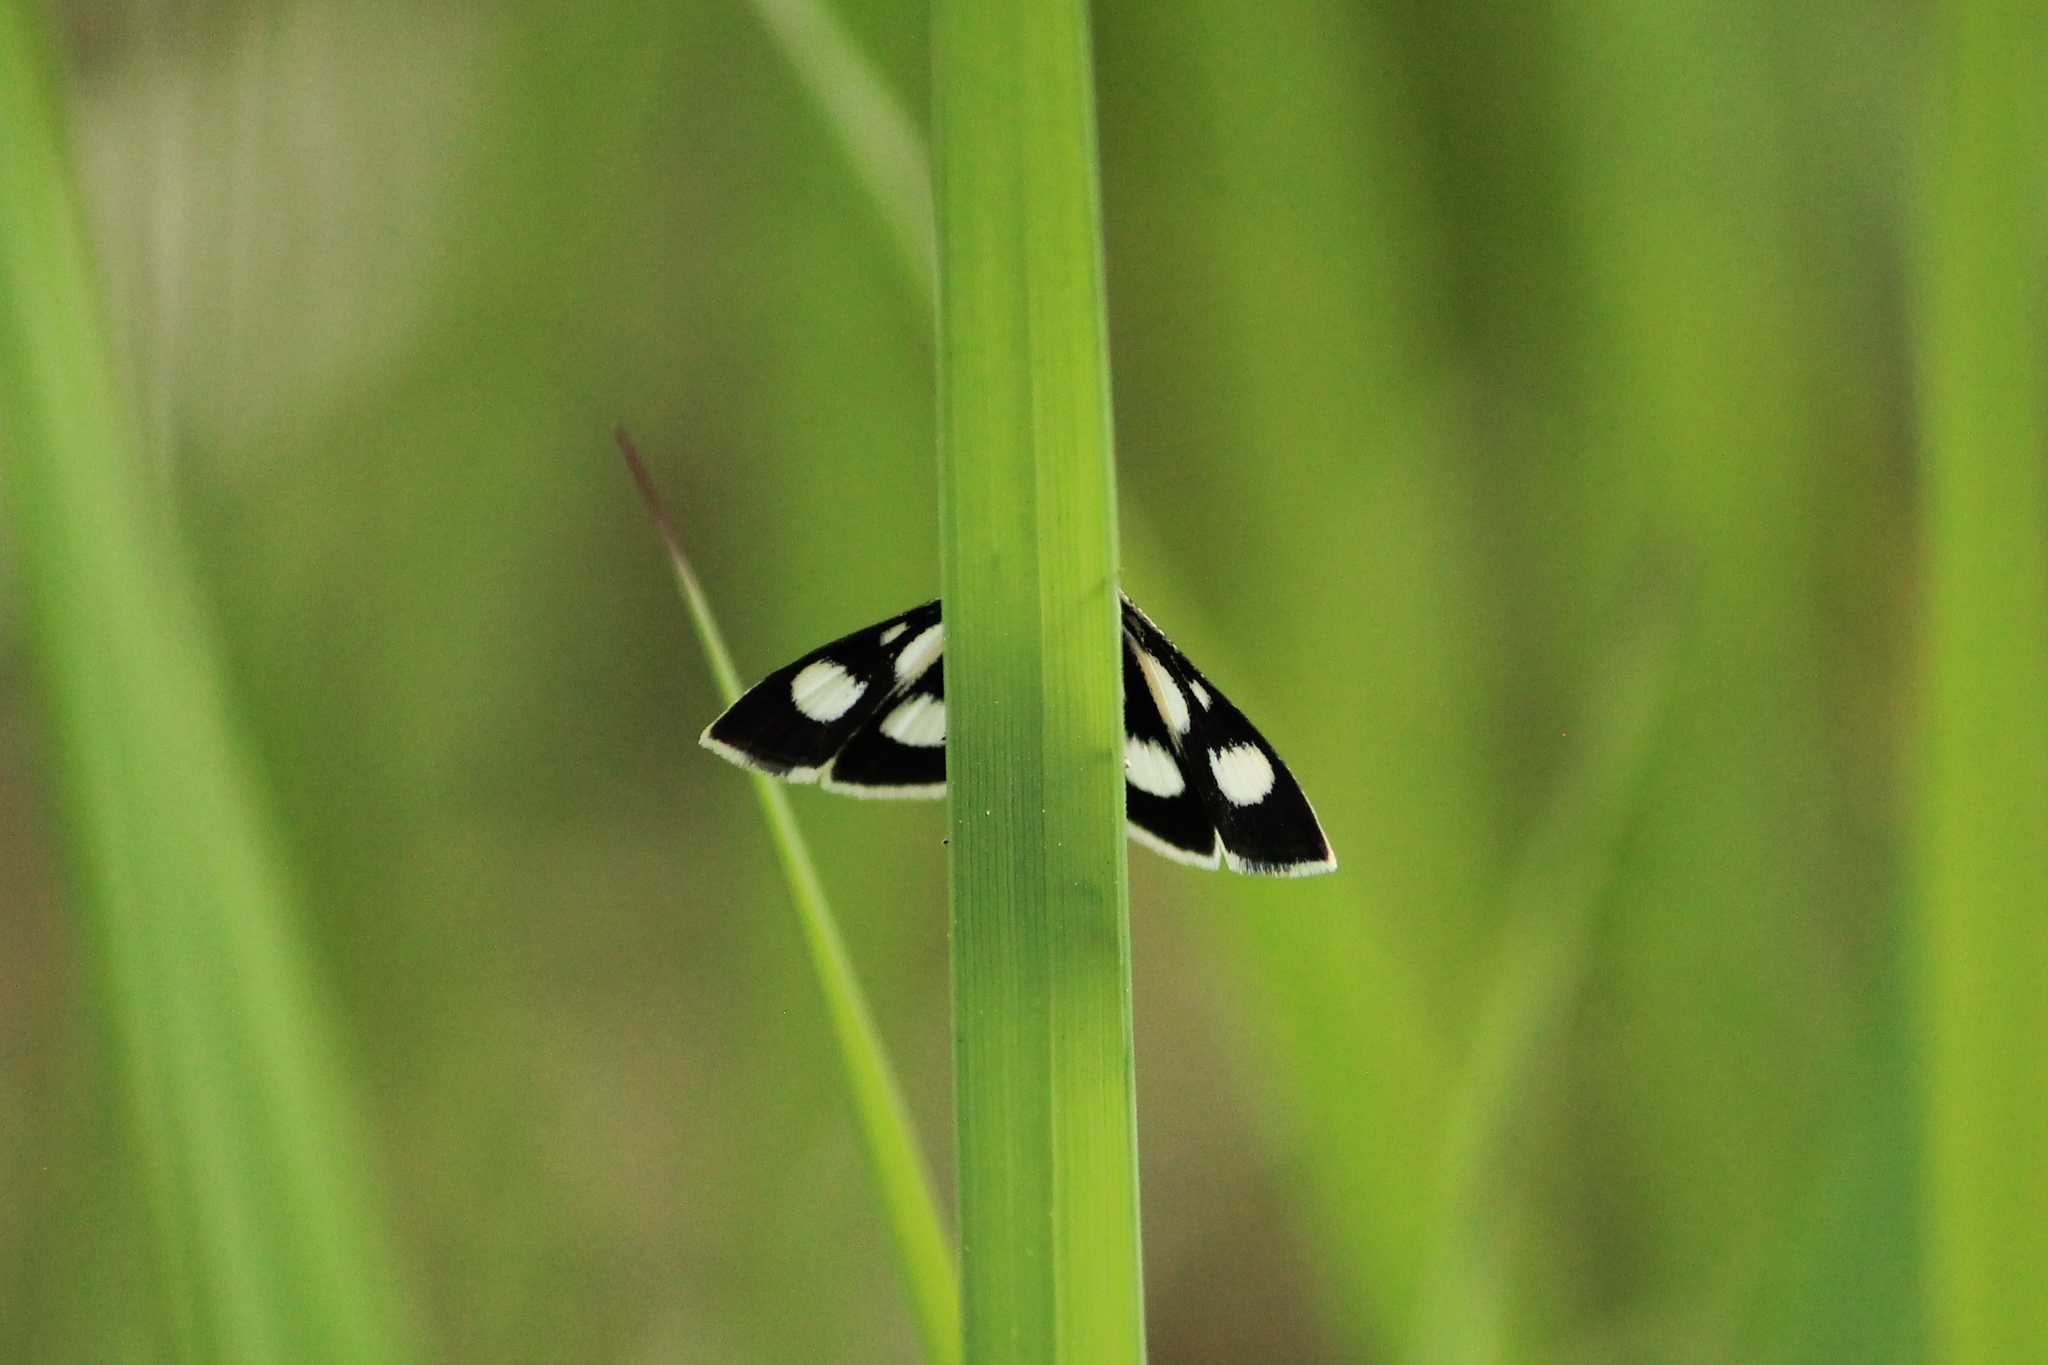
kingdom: Animalia
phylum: Arthropoda
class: Insecta
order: Lepidoptera
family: Crambidae
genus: Anania
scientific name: Anania funebris
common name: White-spotted sable moth
